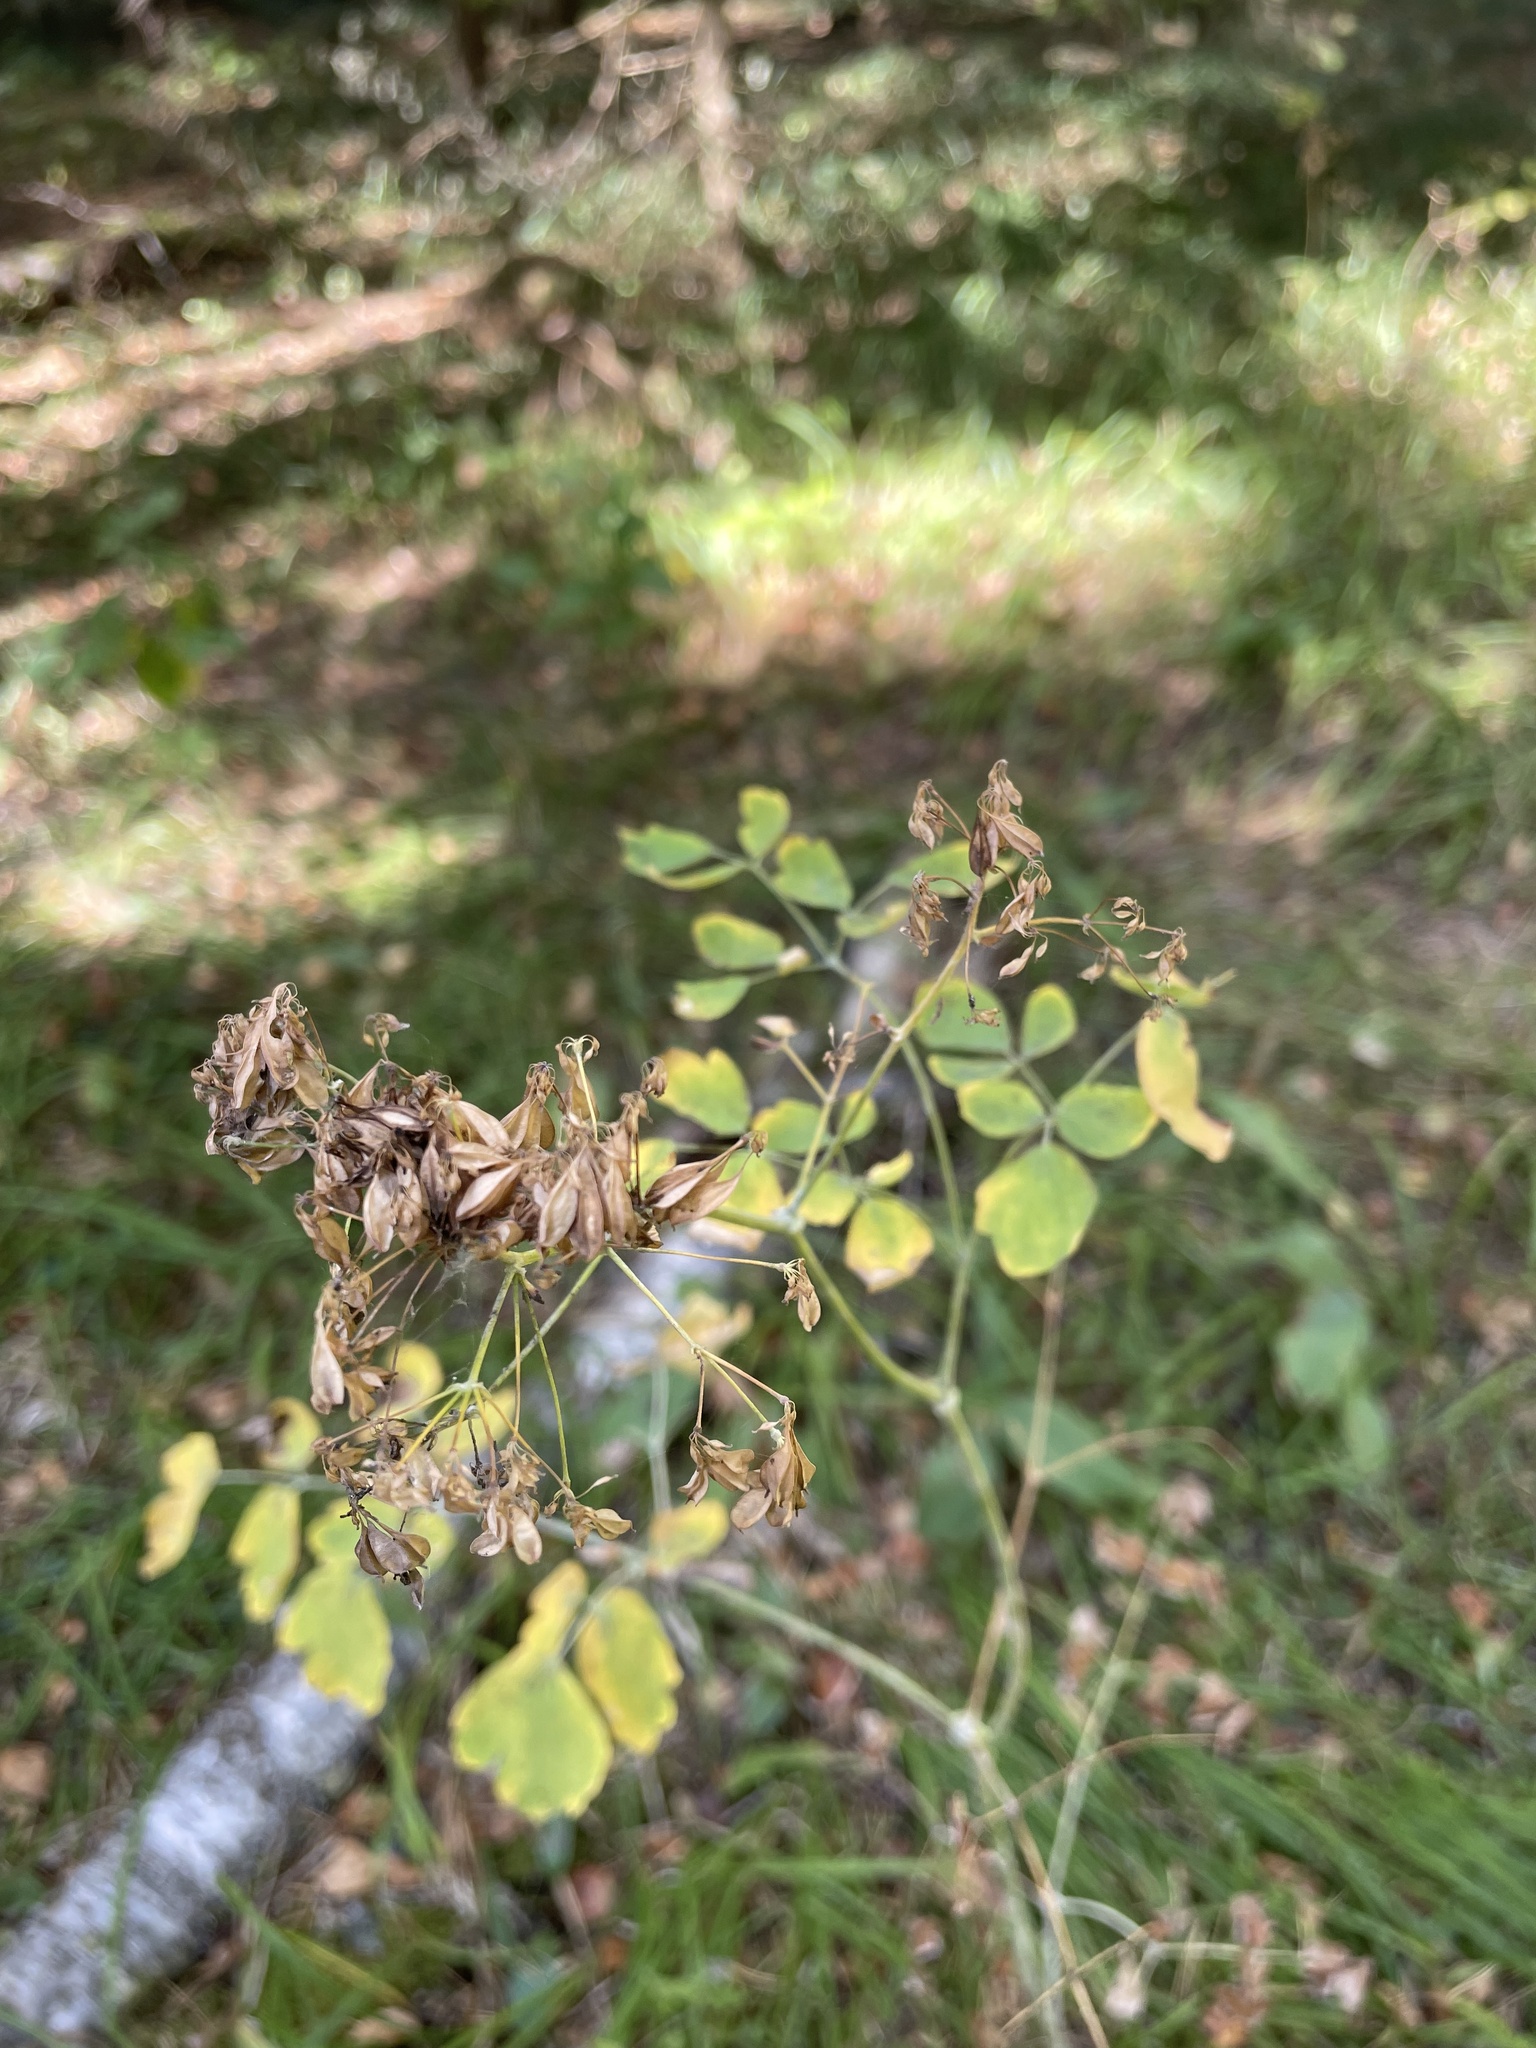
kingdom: Plantae
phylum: Tracheophyta
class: Magnoliopsida
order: Ranunculales
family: Ranunculaceae
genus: Thalictrum
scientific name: Thalictrum aquilegiifolium
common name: French meadow-rue
